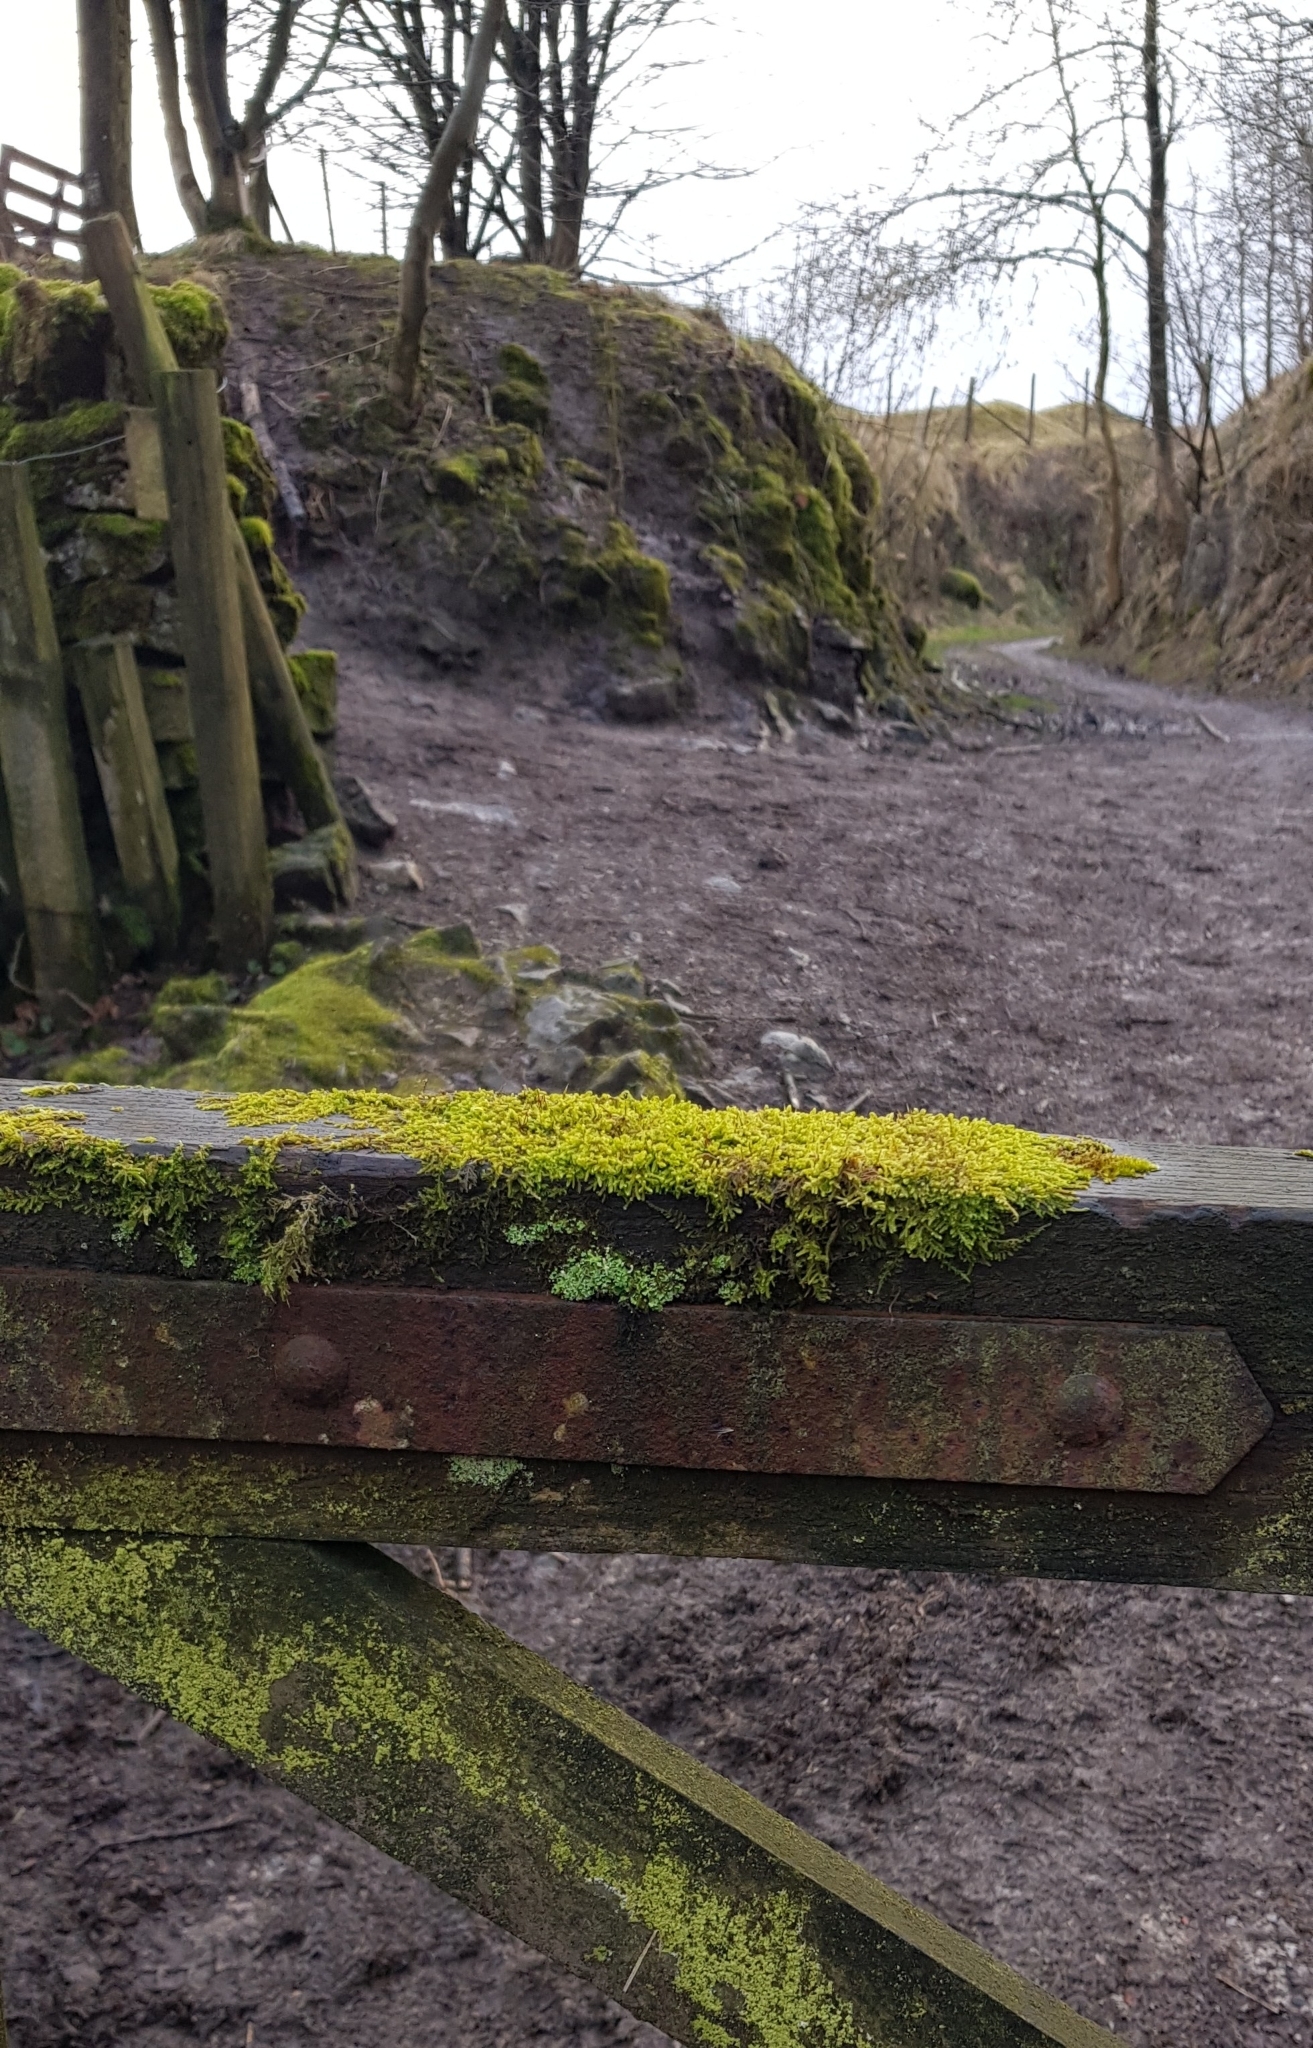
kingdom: Plantae
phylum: Bryophyta
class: Bryopsida
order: Hypnales
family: Scorpidiaceae
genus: Sanionia
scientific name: Sanionia uncinata
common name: Sickle moss
